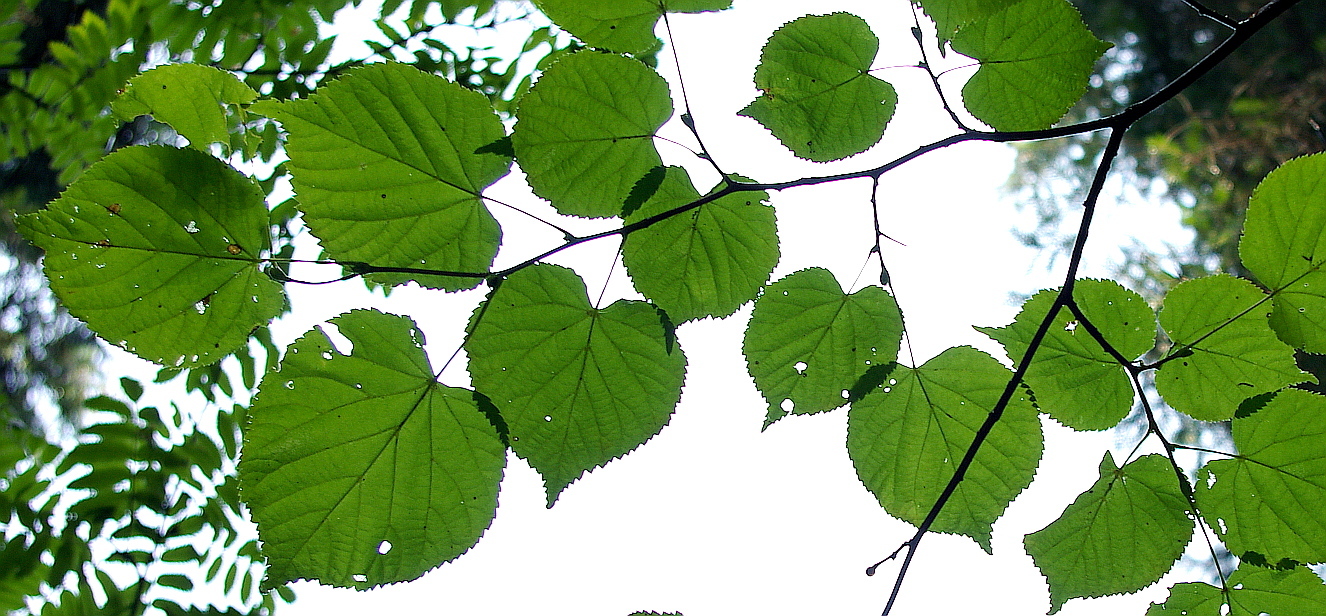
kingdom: Plantae
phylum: Tracheophyta
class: Magnoliopsida
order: Malvales
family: Malvaceae
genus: Tilia
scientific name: Tilia cordata
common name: Small-leaved lime
